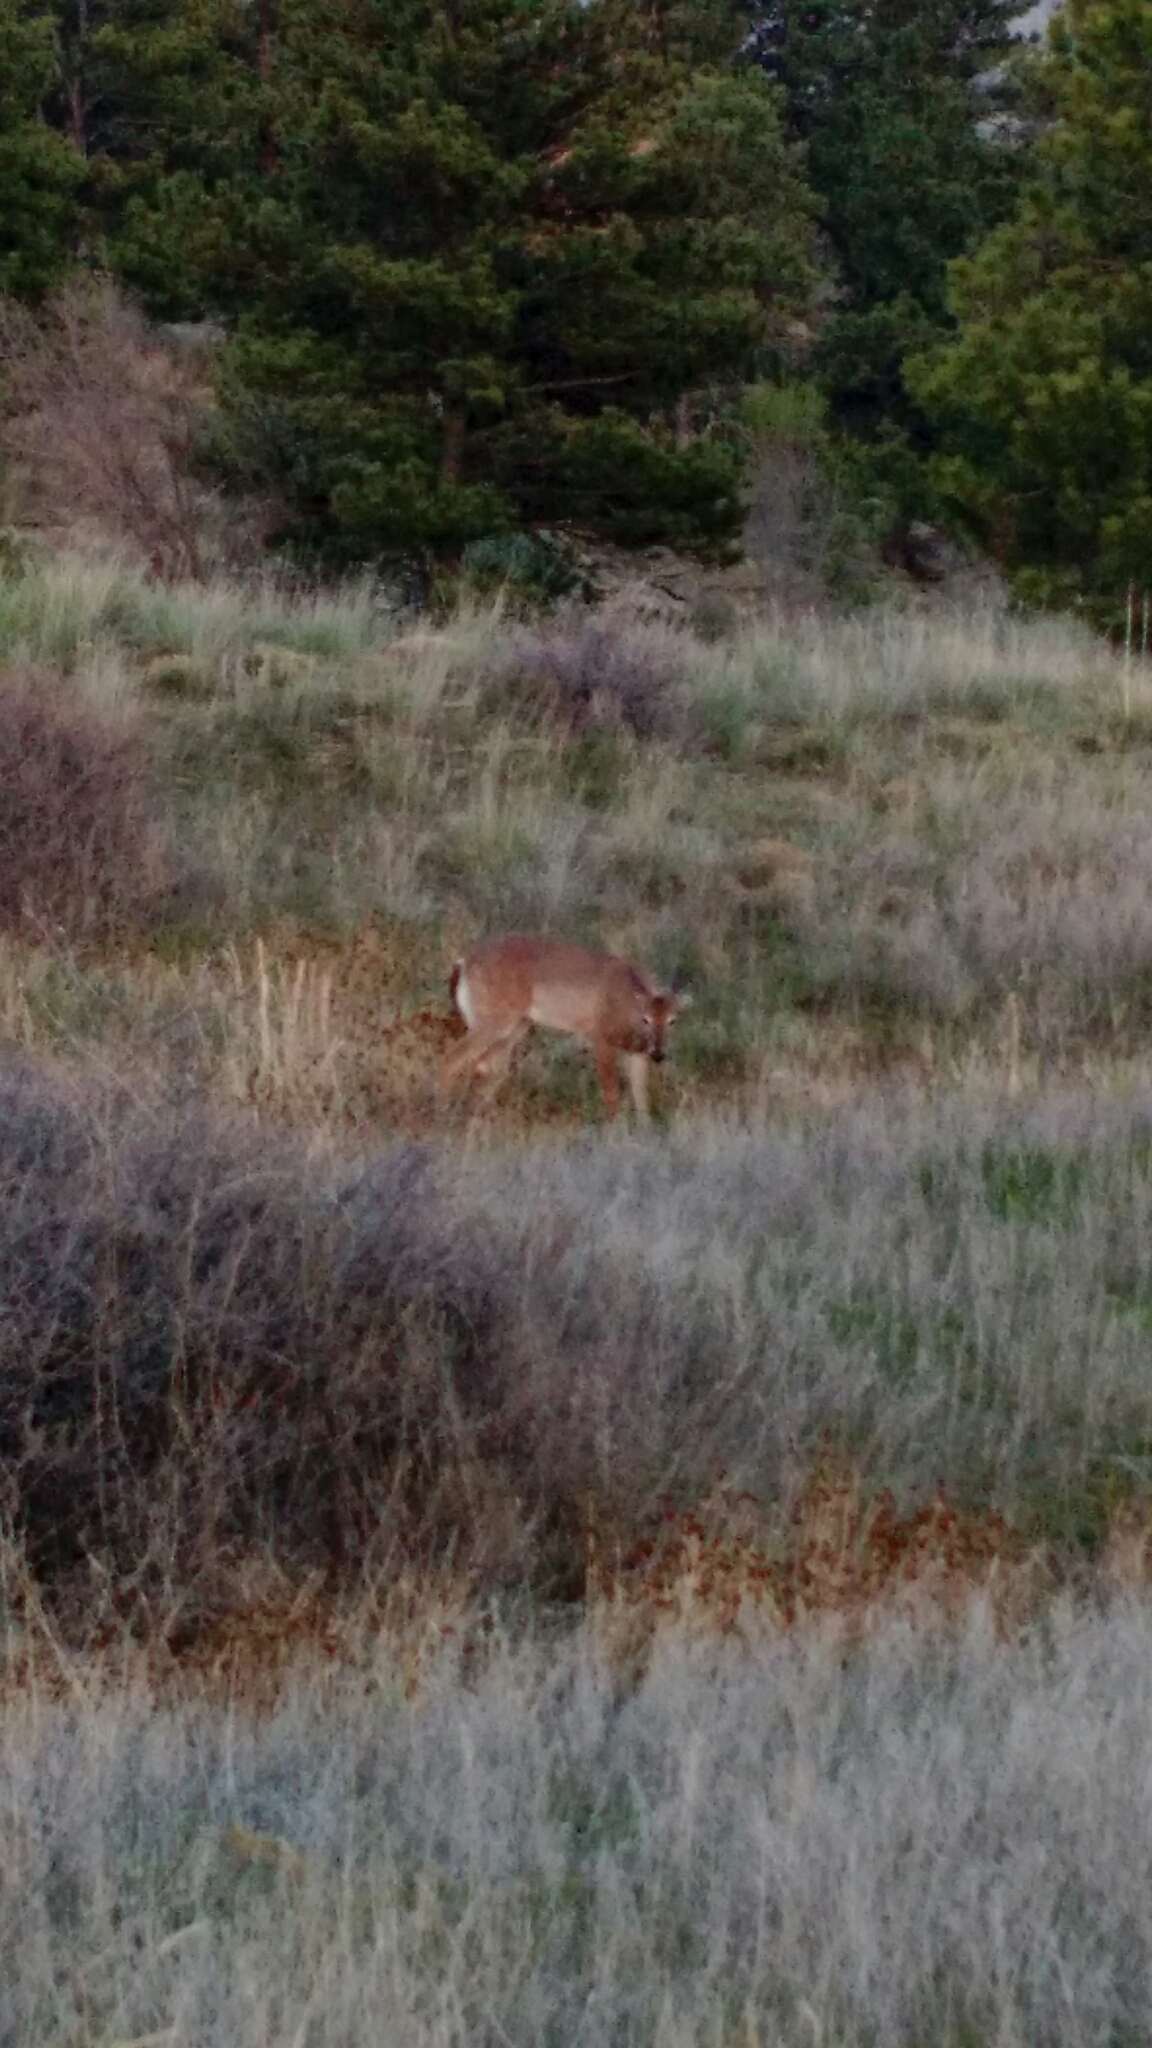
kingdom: Animalia
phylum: Chordata
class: Mammalia
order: Artiodactyla
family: Cervidae
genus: Odocoileus
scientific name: Odocoileus virginianus
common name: White-tailed deer
